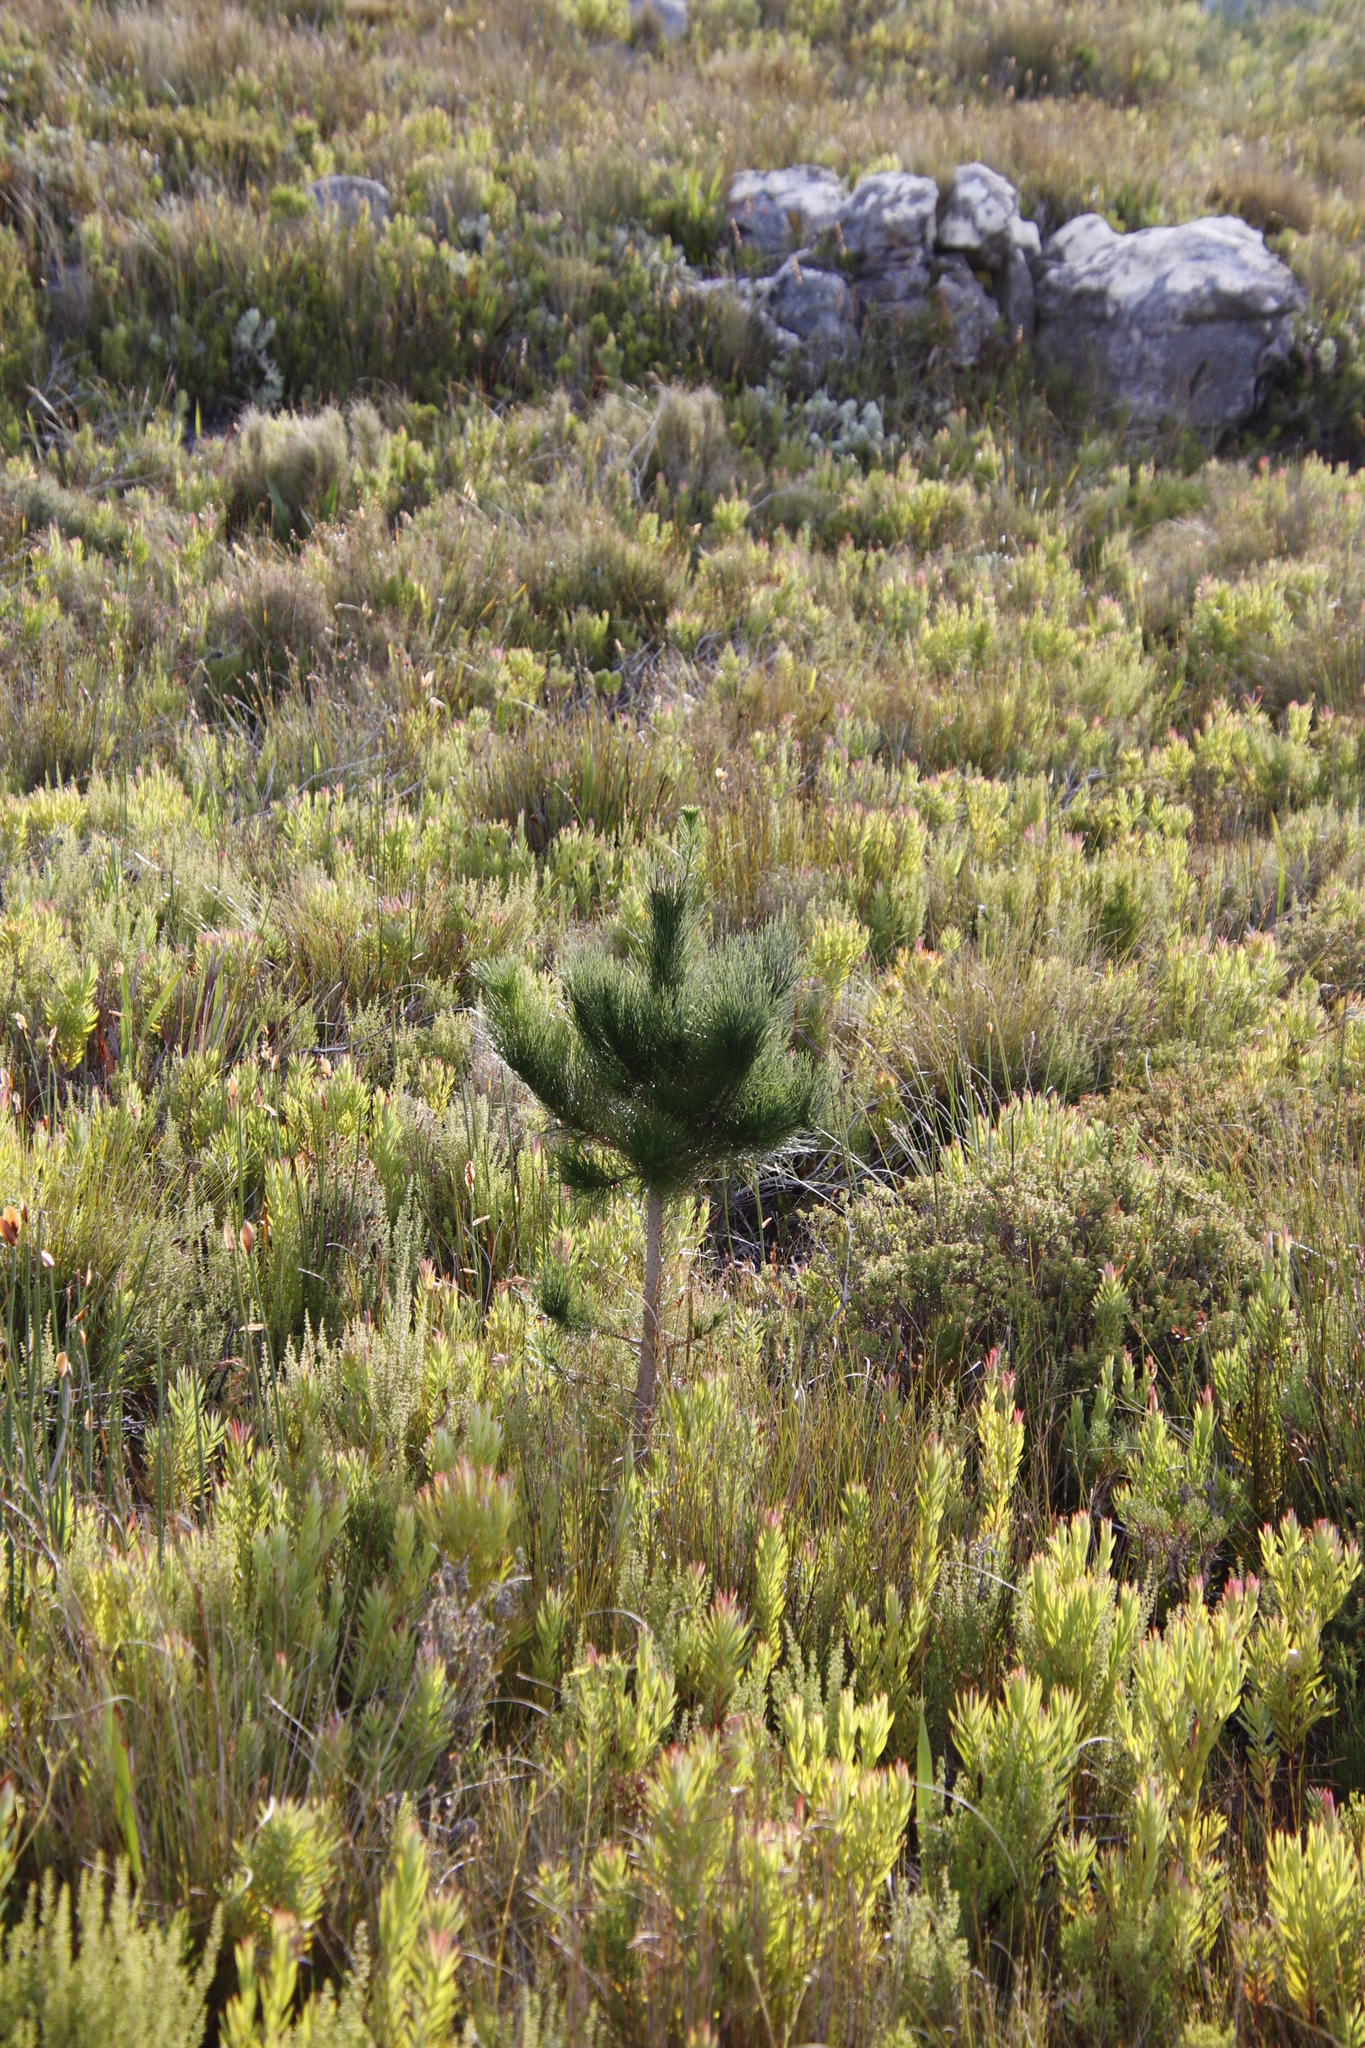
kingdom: Plantae
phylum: Tracheophyta
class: Pinopsida
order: Pinales
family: Pinaceae
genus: Pinus
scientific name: Pinus radiata
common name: Monterey pine
